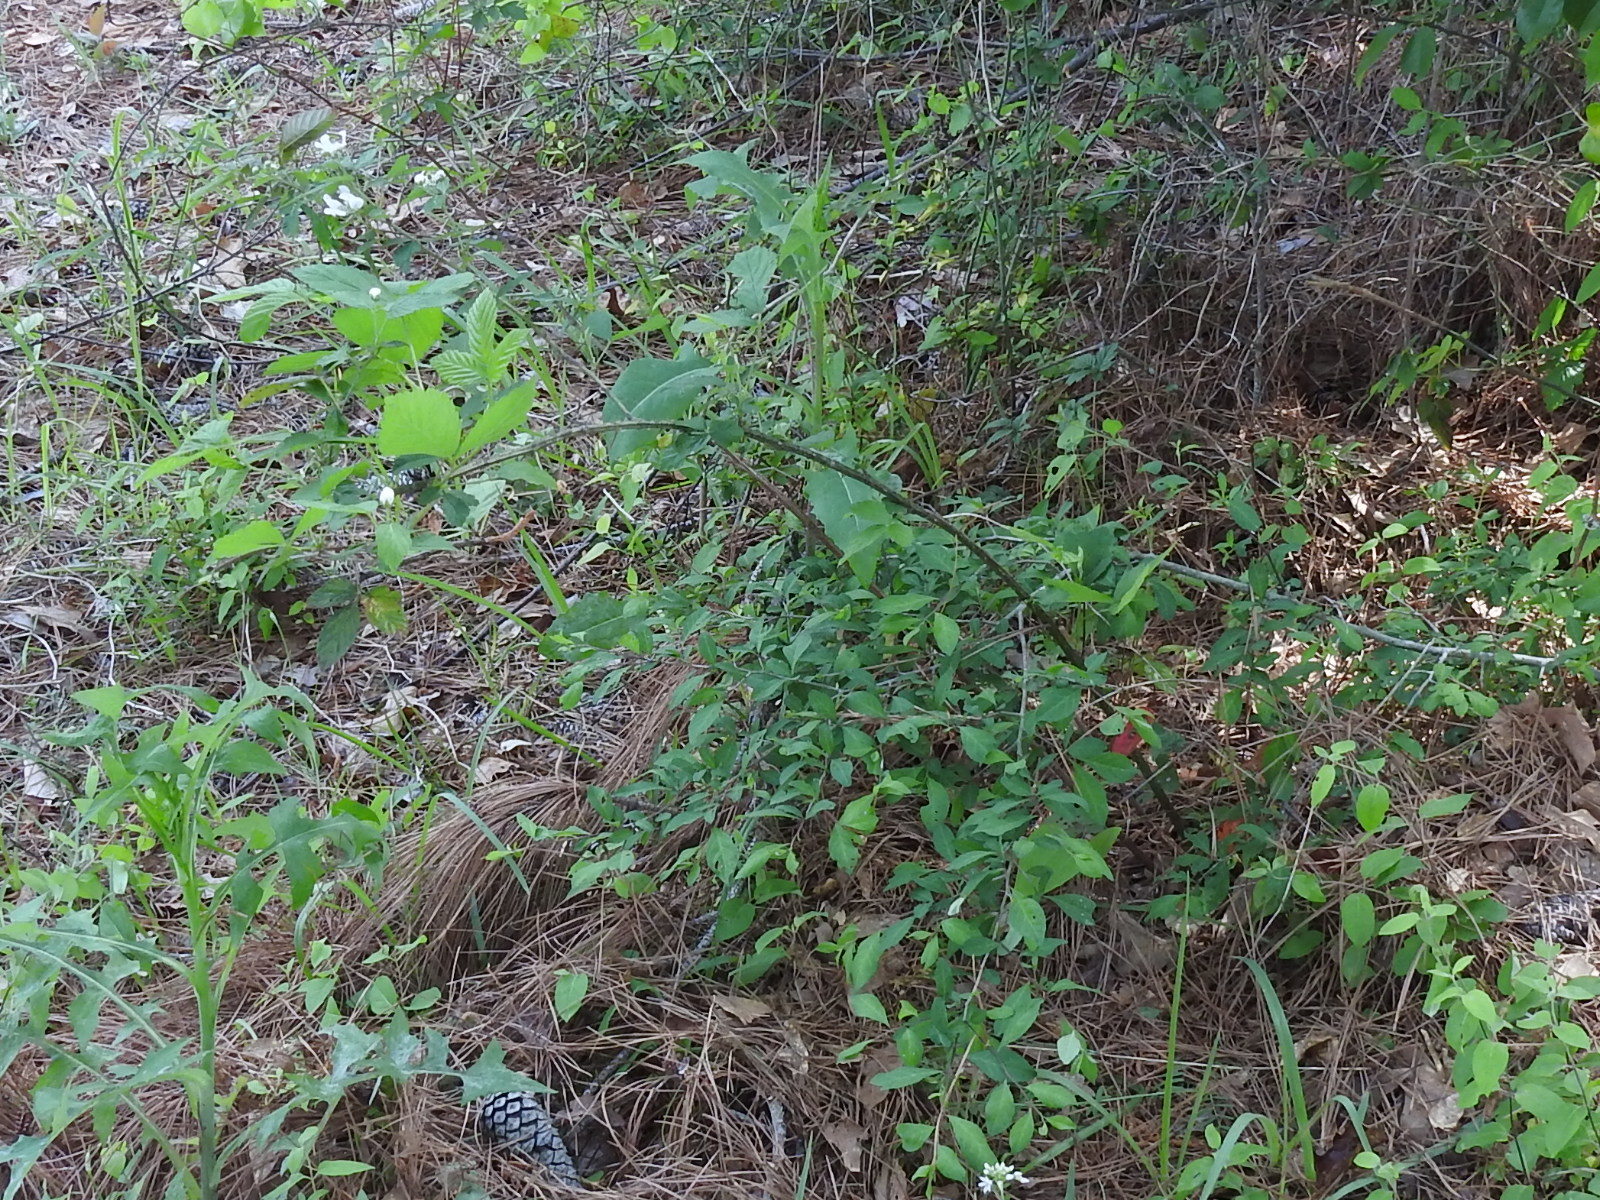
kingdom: Plantae
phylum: Tracheophyta
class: Magnoliopsida
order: Rosales
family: Rosaceae
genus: Rubus
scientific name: Rubus pensilvanicus
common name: Pennsylvania blackberry
